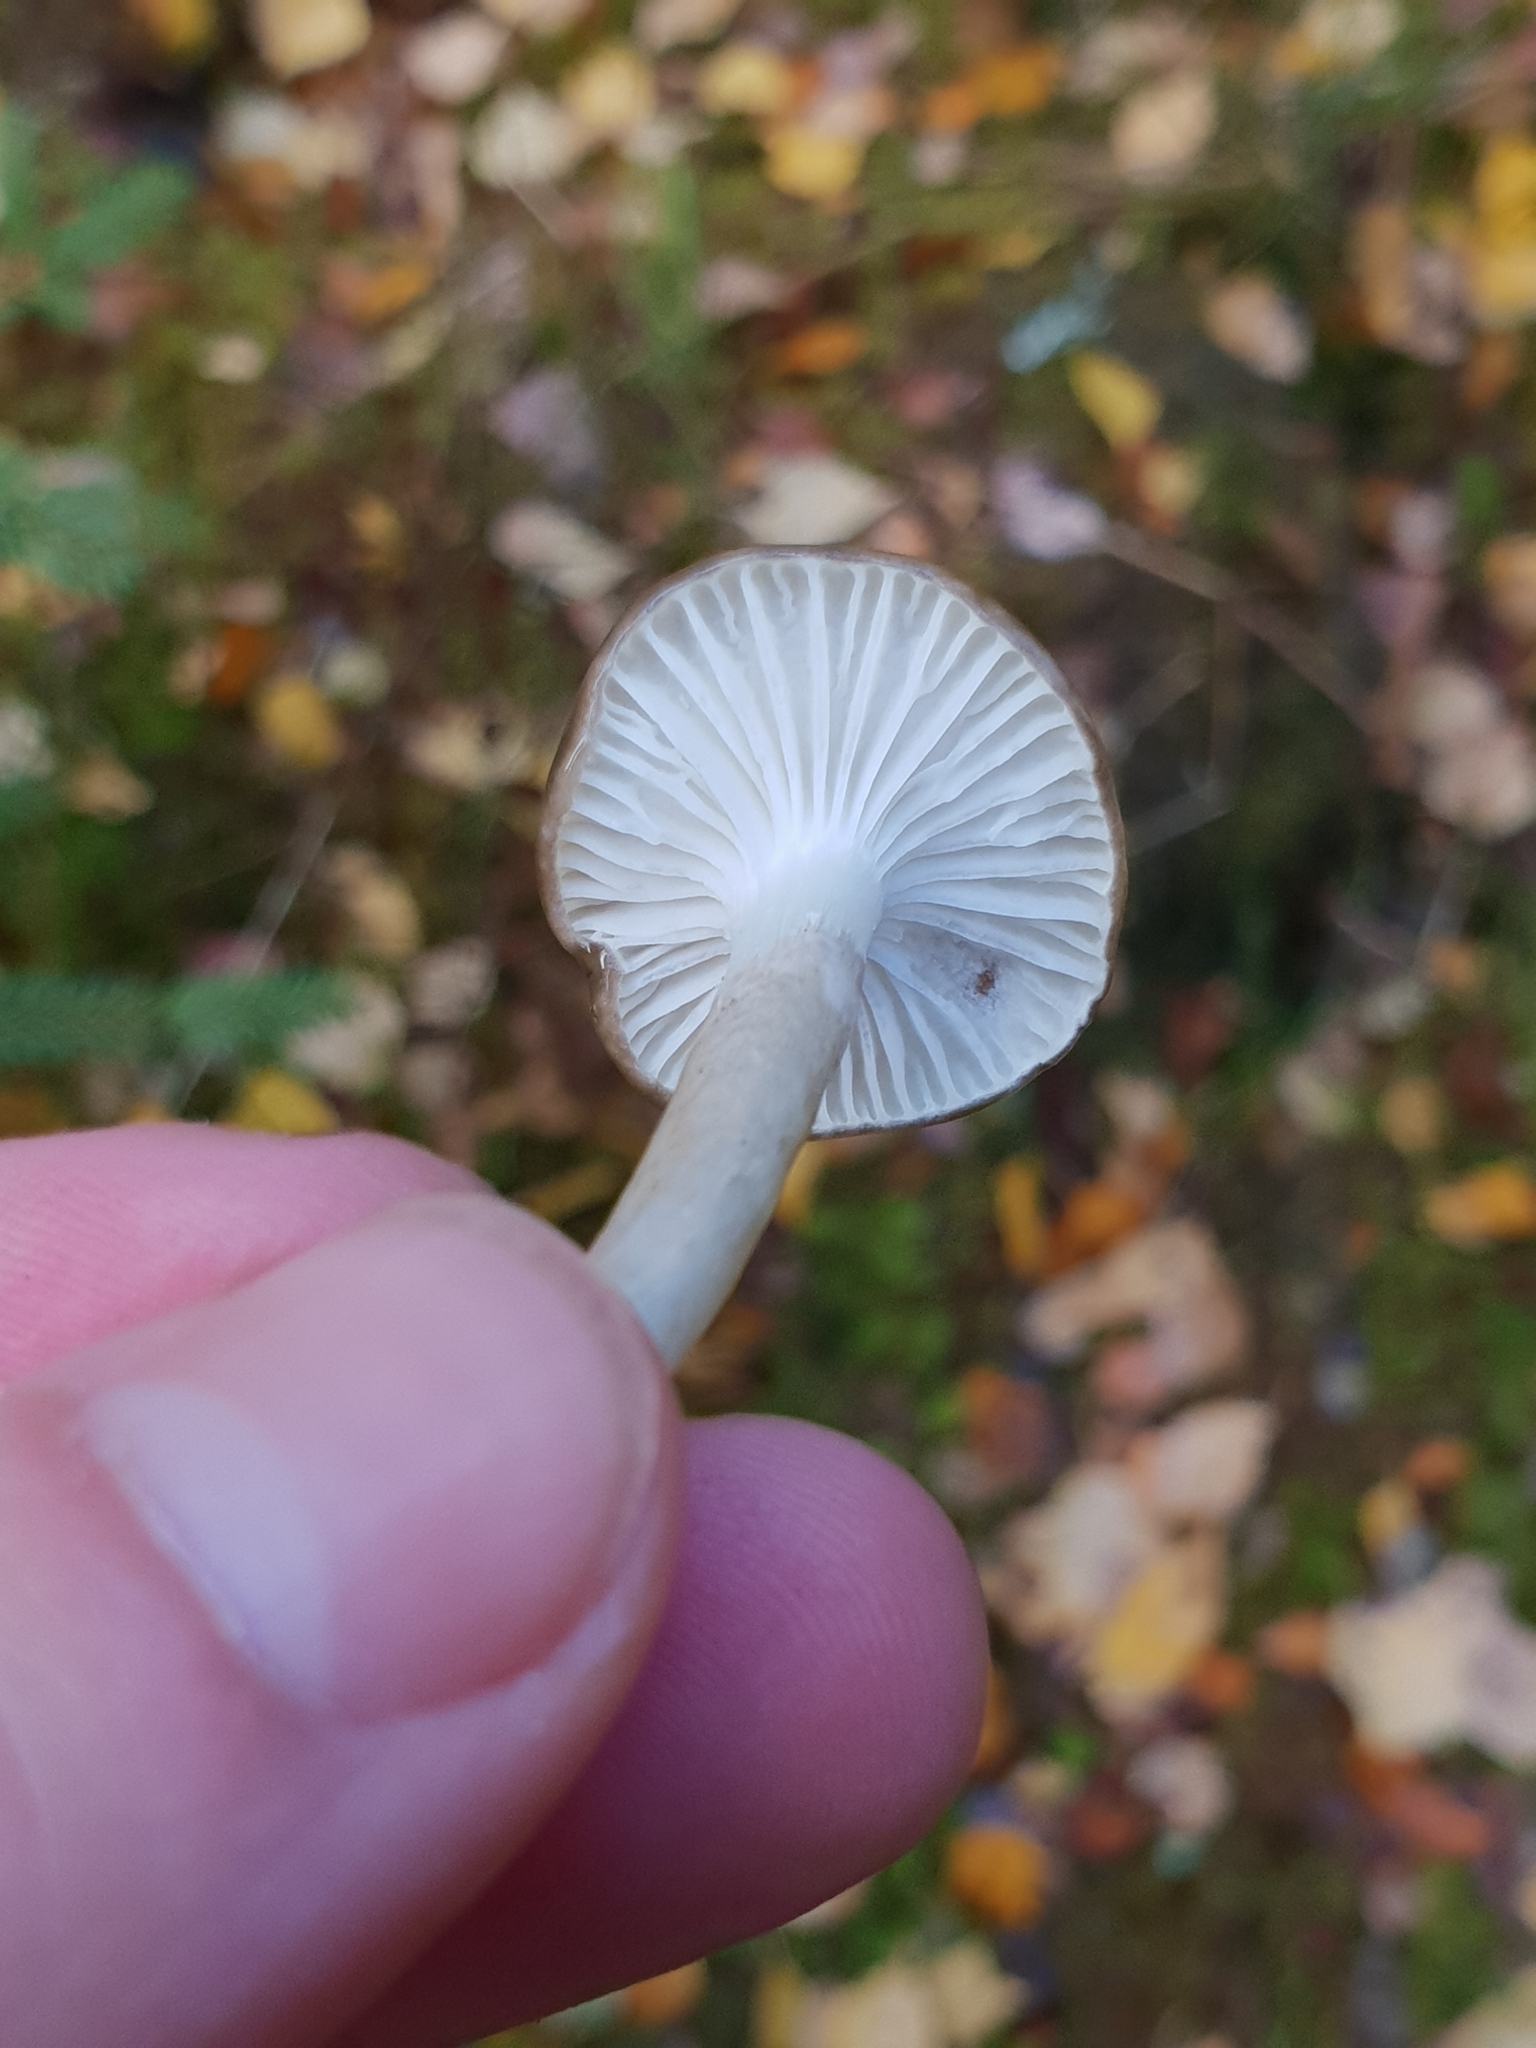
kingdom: Fungi
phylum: Basidiomycota
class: Agaricomycetes
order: Agaricales
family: Hygrophoraceae
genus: Hygrophorus
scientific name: Hygrophorus olivaceoalbus
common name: Olive wax cap
